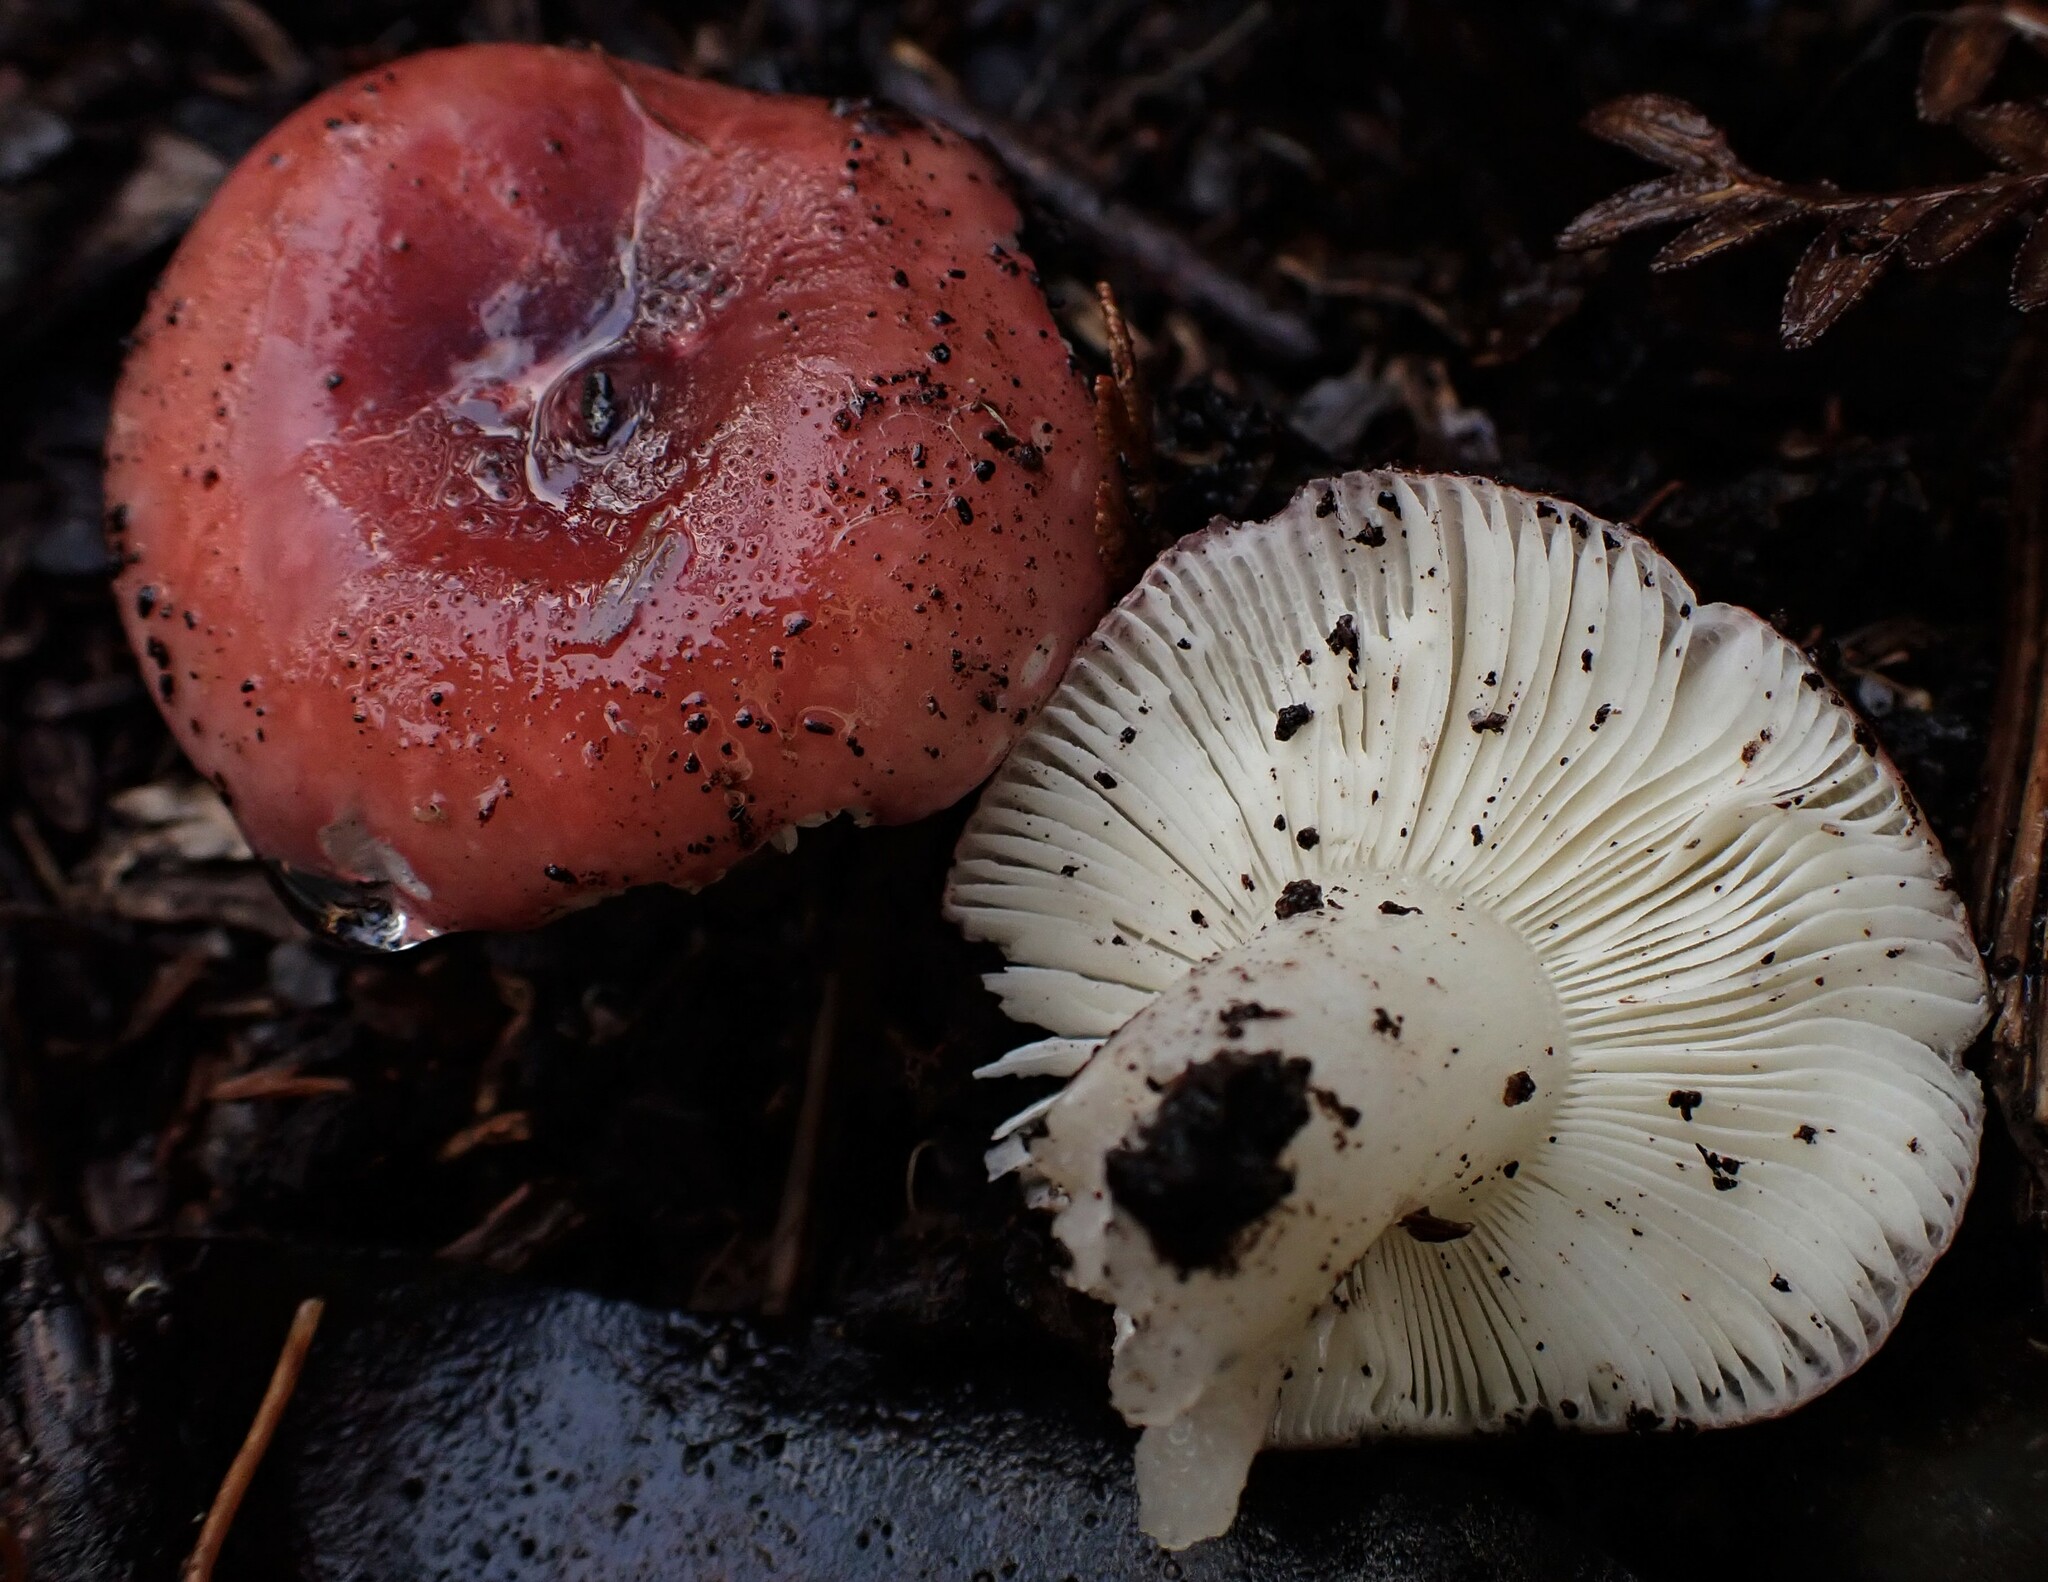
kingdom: Fungi
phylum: Basidiomycota
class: Agaricomycetes
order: Russulales
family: Russulaceae
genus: Russula
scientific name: Russula persanguinea
